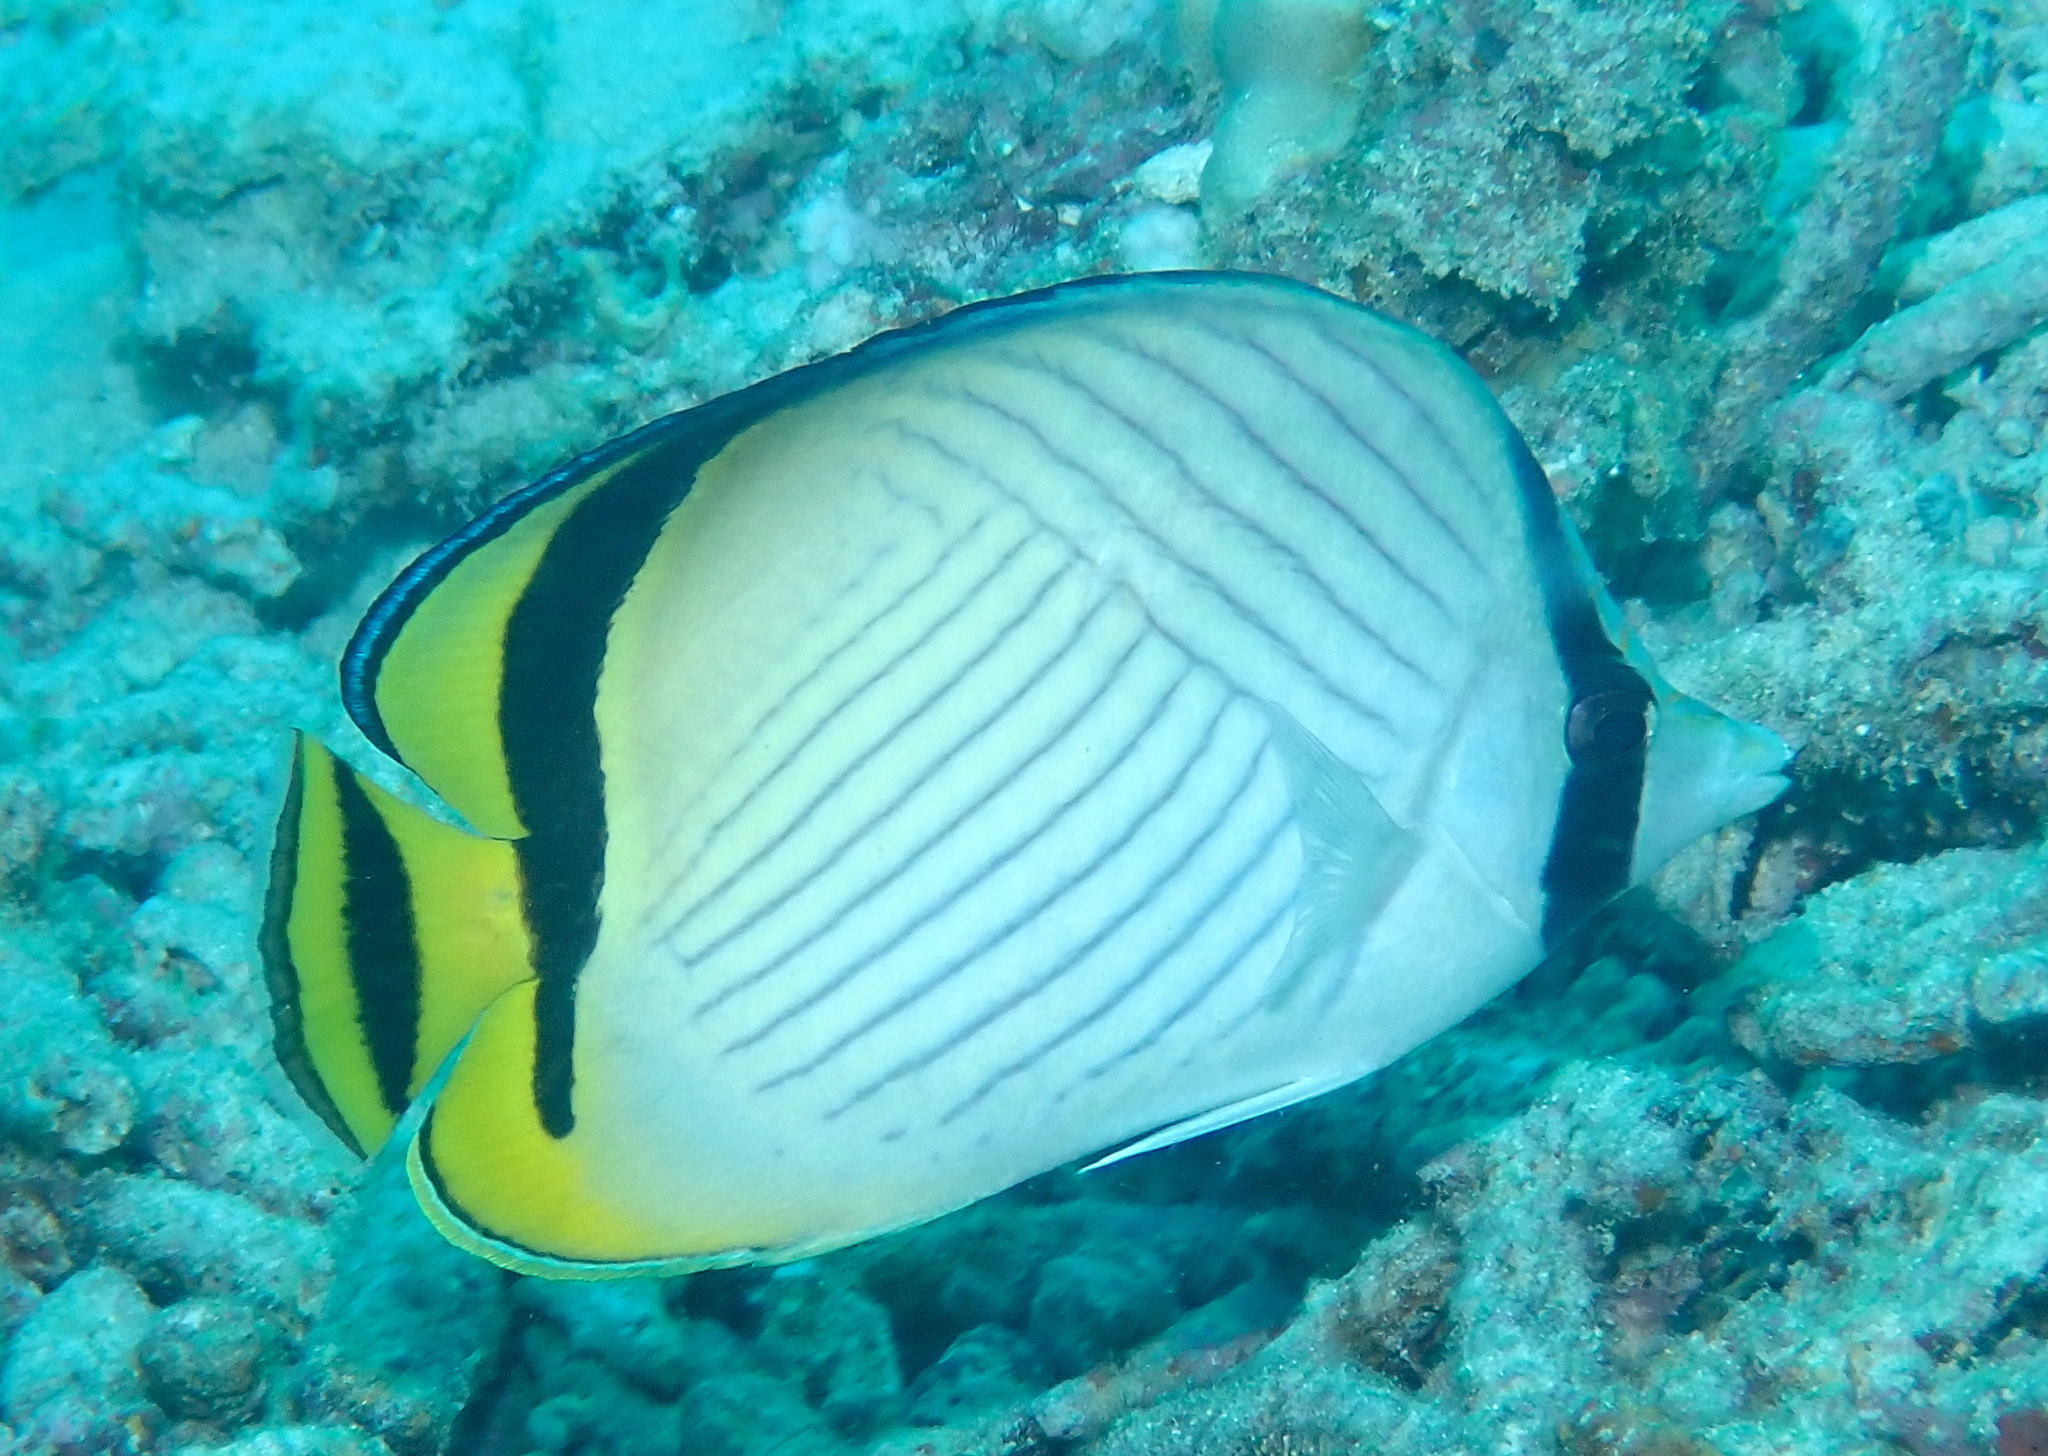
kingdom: Animalia
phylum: Chordata
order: Perciformes
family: Chaetodontidae
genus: Chaetodon
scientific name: Chaetodon vagabundus
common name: Vagabond butterflyfish
